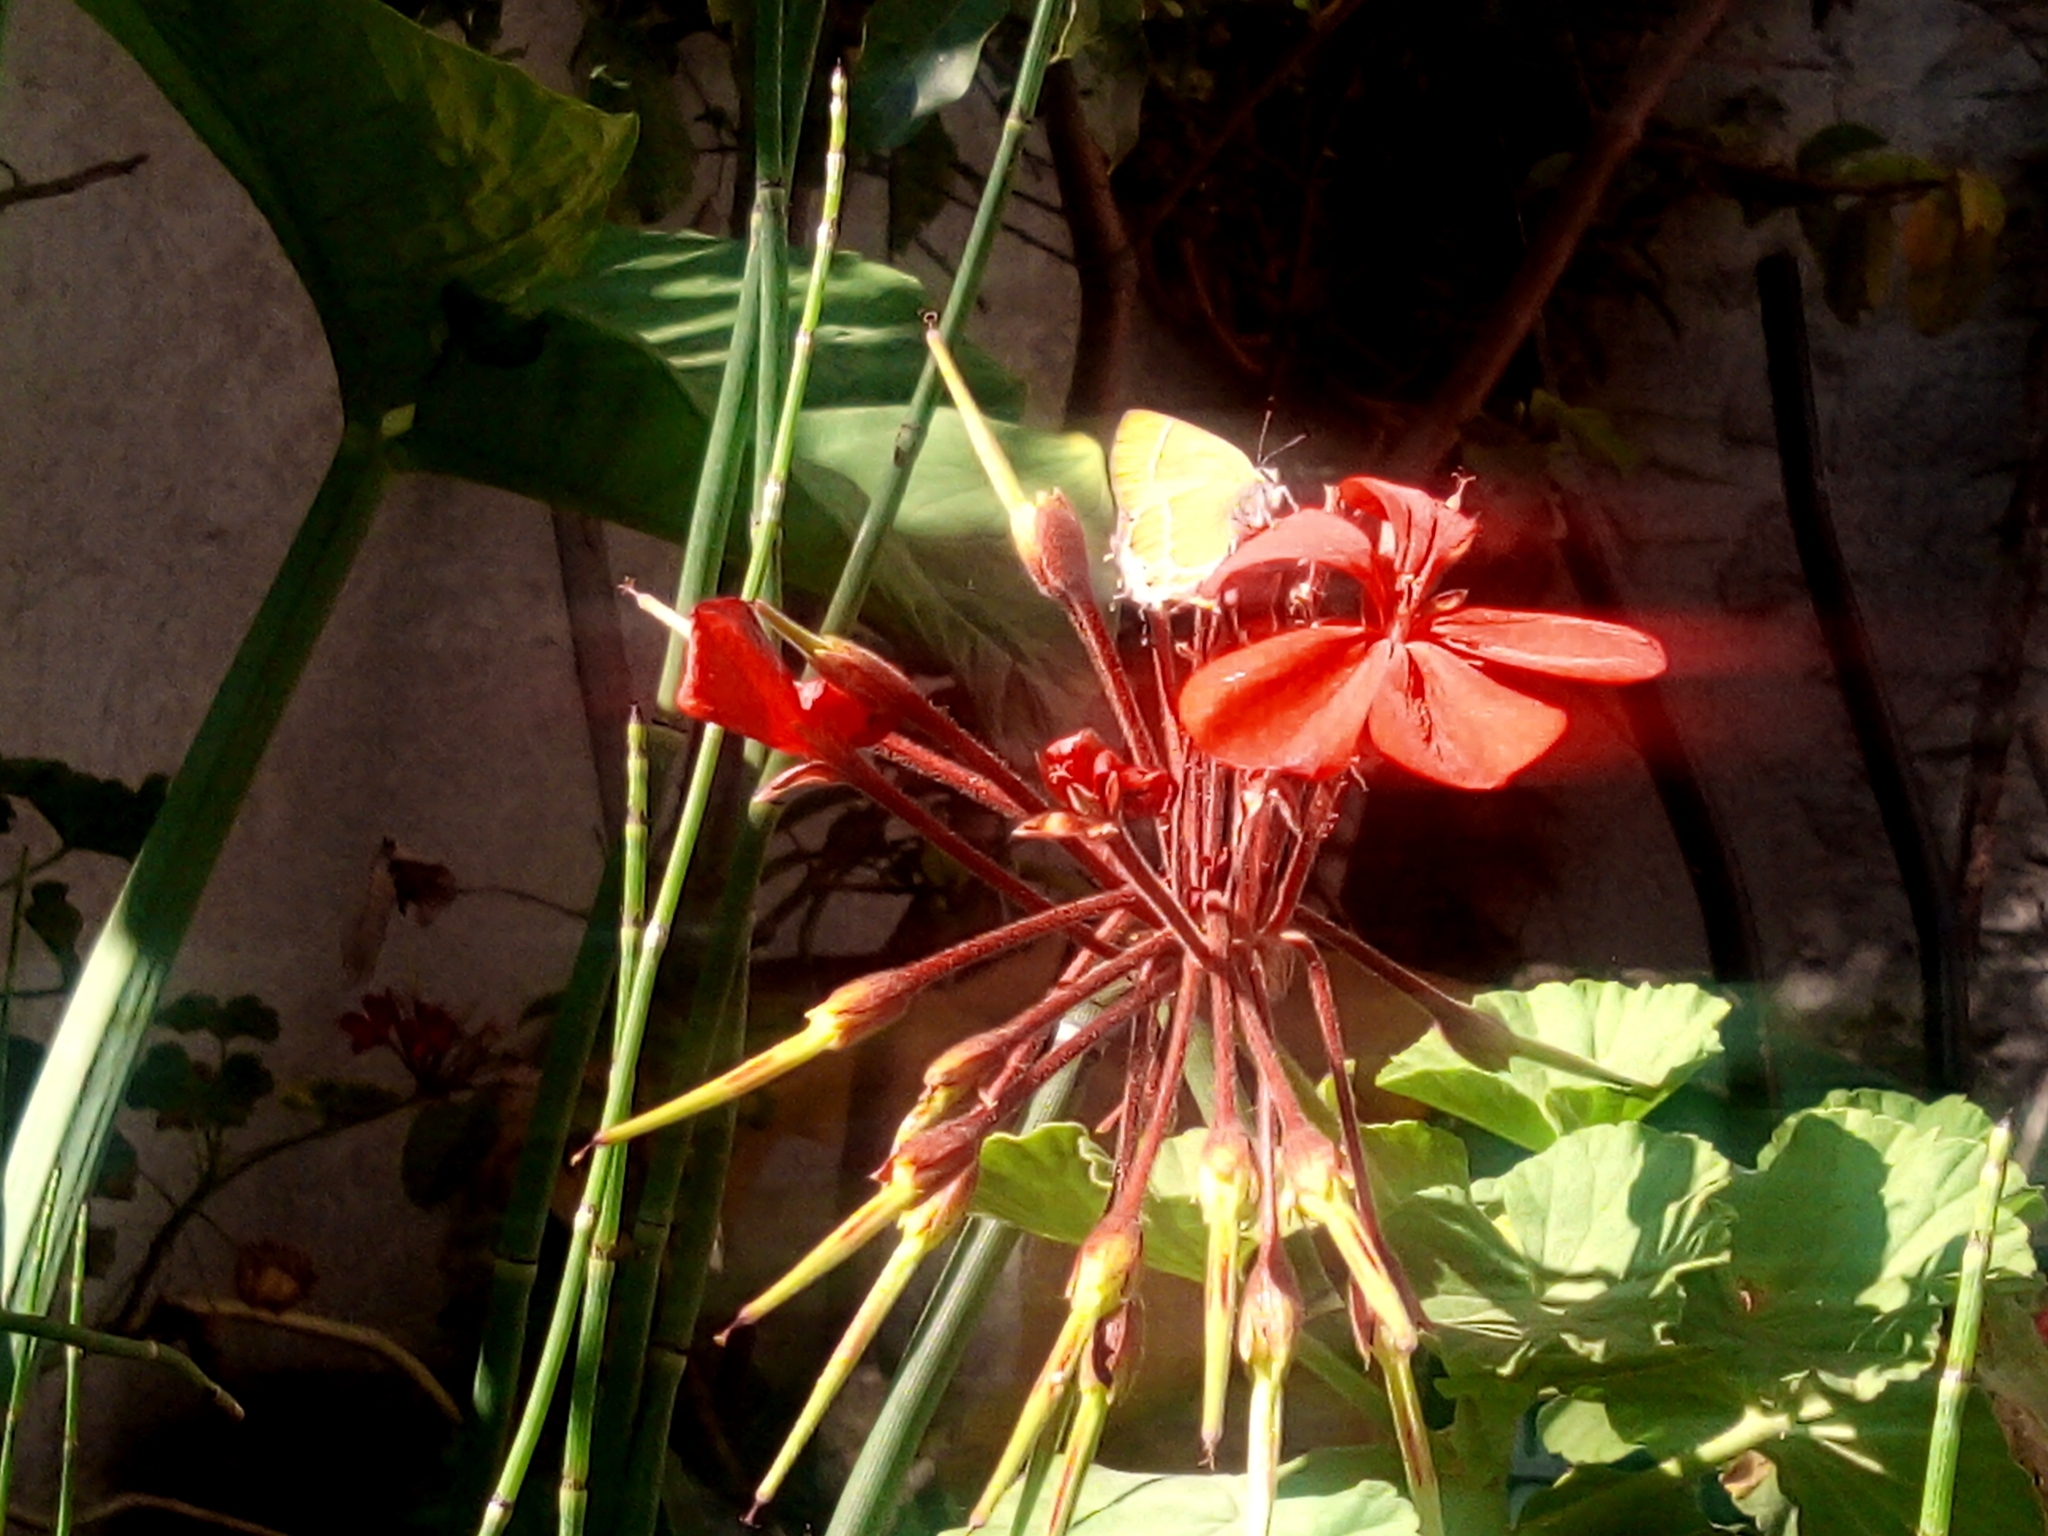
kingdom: Animalia
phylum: Arthropoda
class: Insecta
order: Lepidoptera
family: Lycaenidae
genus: Xamia
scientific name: Xamia xami
